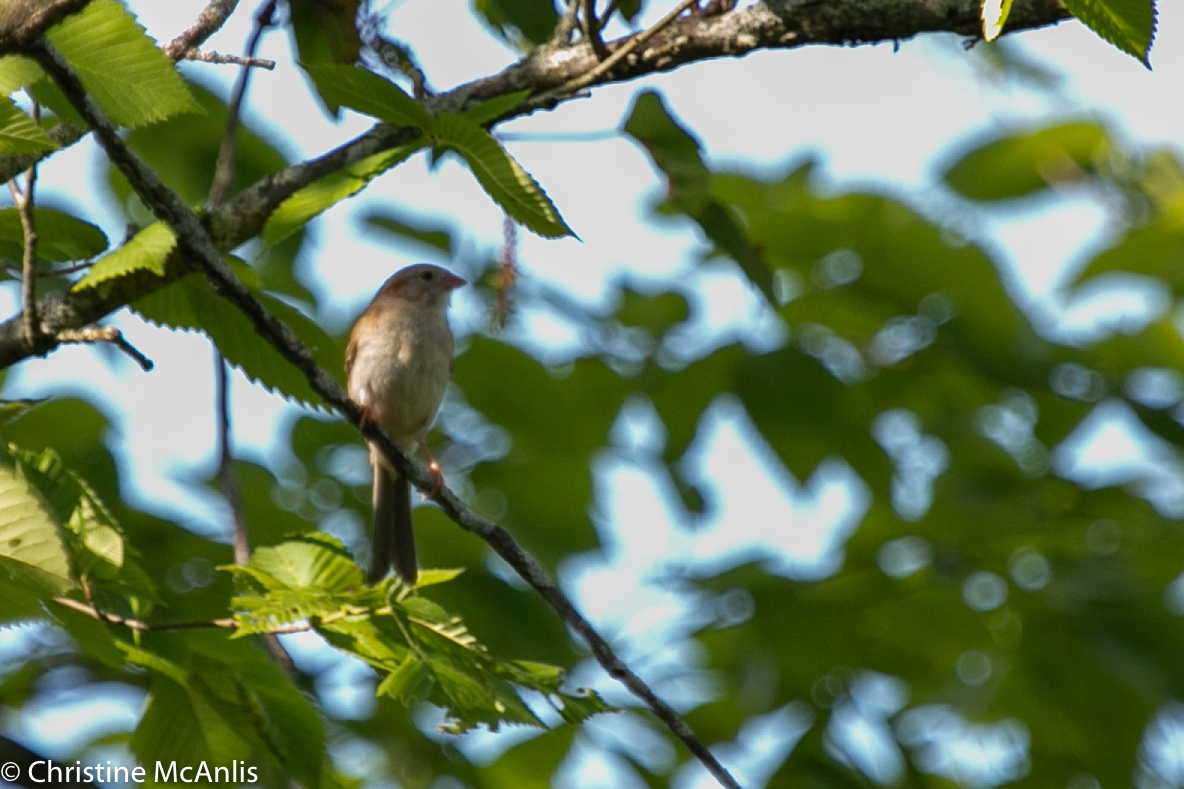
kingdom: Animalia
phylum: Chordata
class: Aves
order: Passeriformes
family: Passerellidae
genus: Spizella
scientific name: Spizella pusilla
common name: Field sparrow
